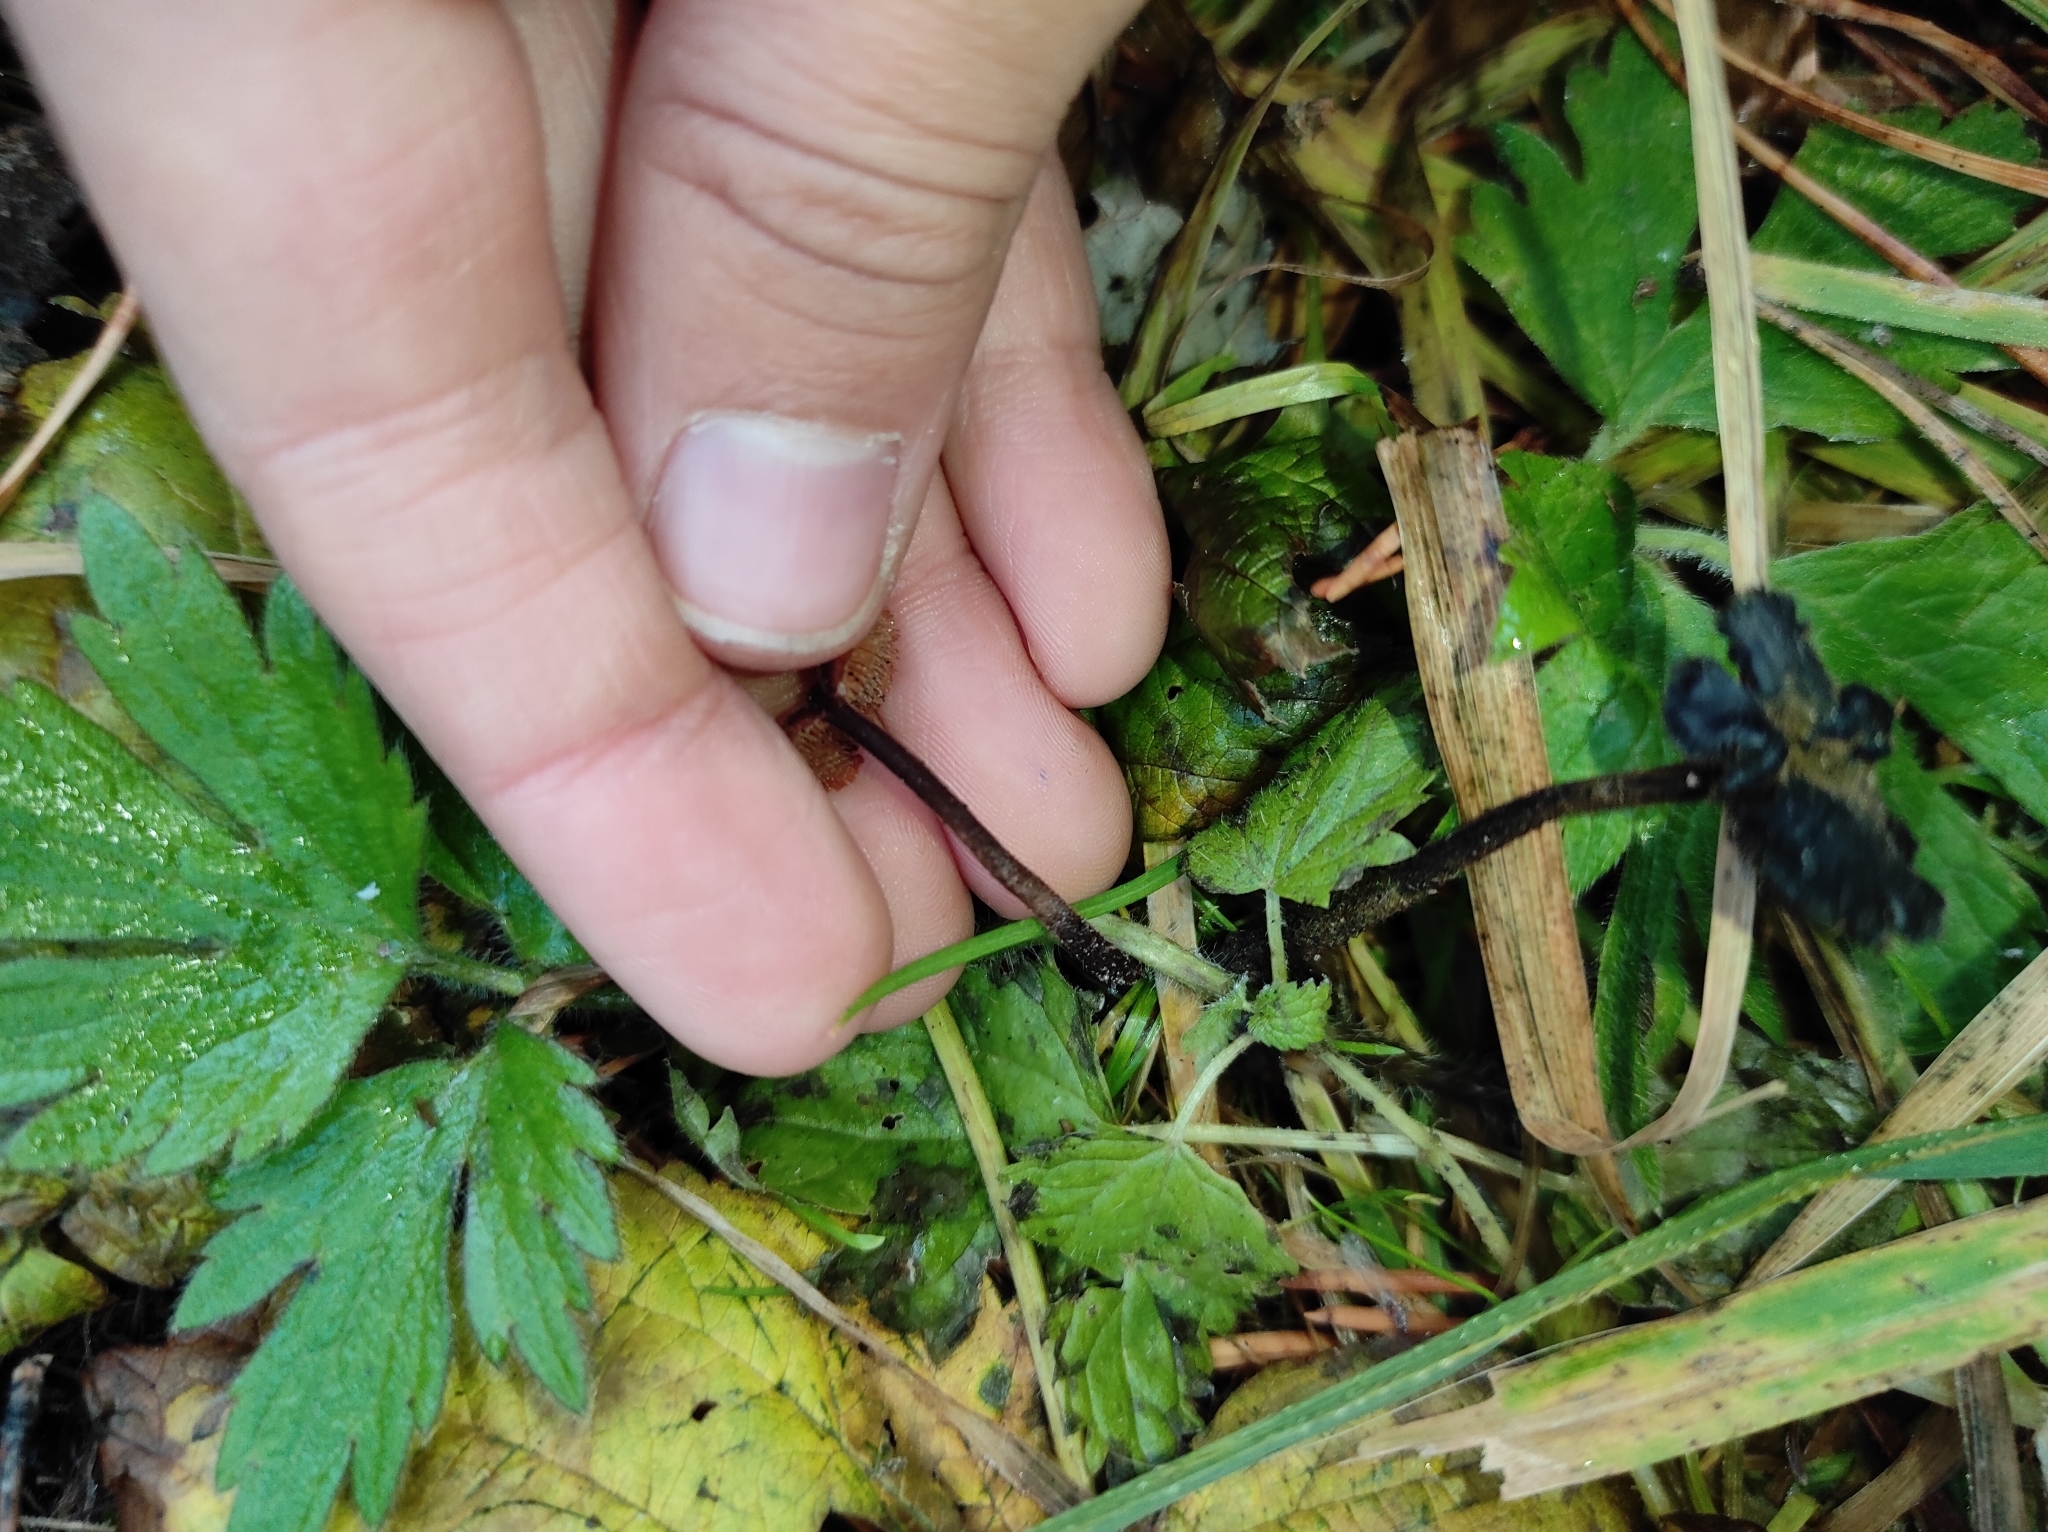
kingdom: Fungi
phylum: Basidiomycota
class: Agaricomycetes
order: Russulales
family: Auriscalpiaceae
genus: Auriscalpium
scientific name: Auriscalpium vulgare
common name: Earpick fungus
